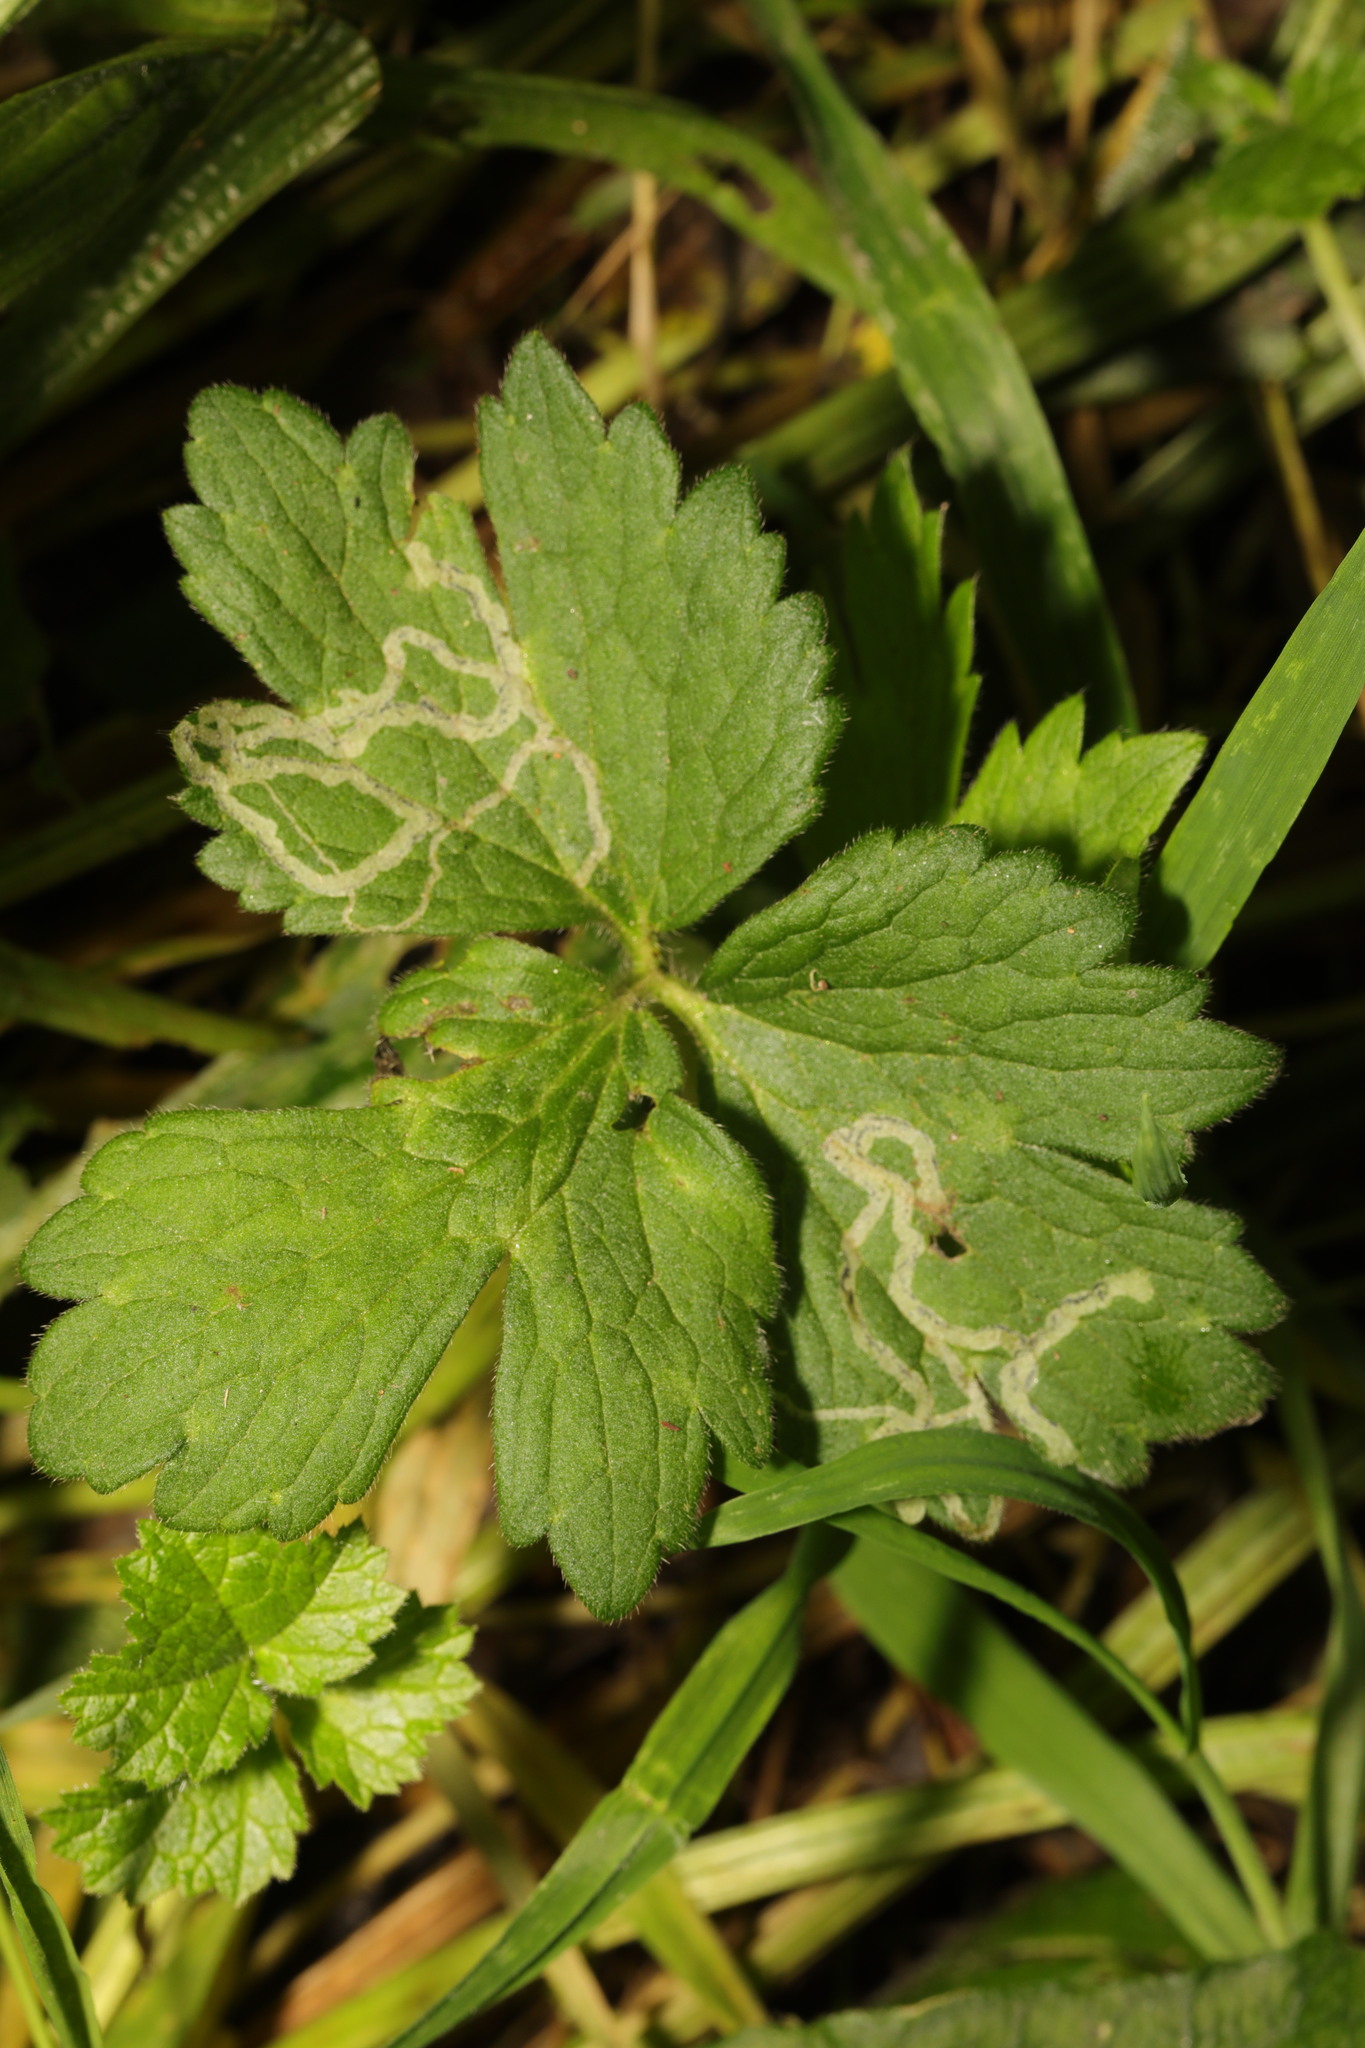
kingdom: Animalia
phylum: Arthropoda
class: Insecta
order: Diptera
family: Agromyzidae
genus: Phytomyza
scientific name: Phytomyza ranunculi
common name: Leaf-miner fly
